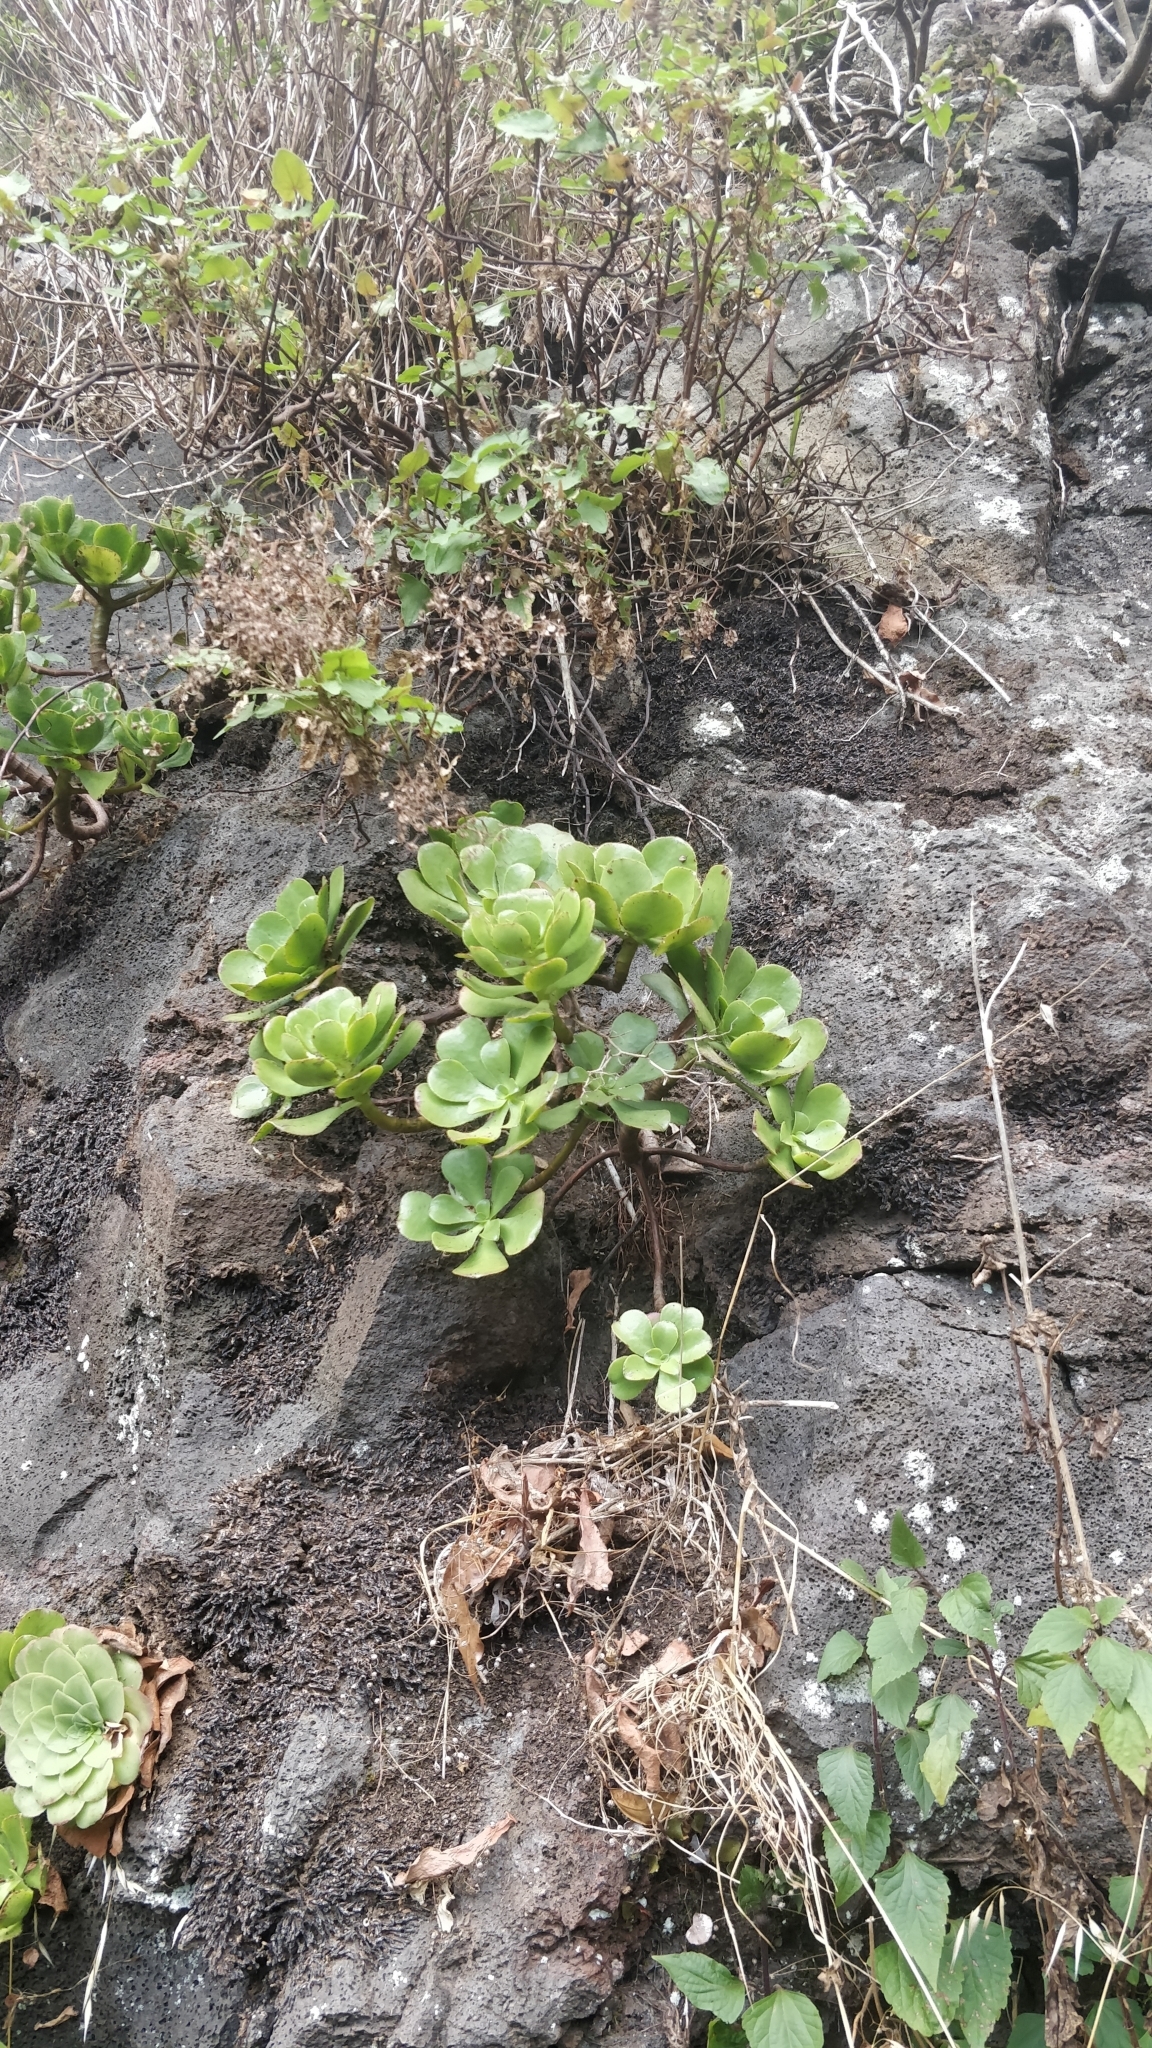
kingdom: Plantae
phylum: Tracheophyta
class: Magnoliopsida
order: Saxifragales
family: Crassulaceae
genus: Aeonium
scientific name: Aeonium glutinosum
